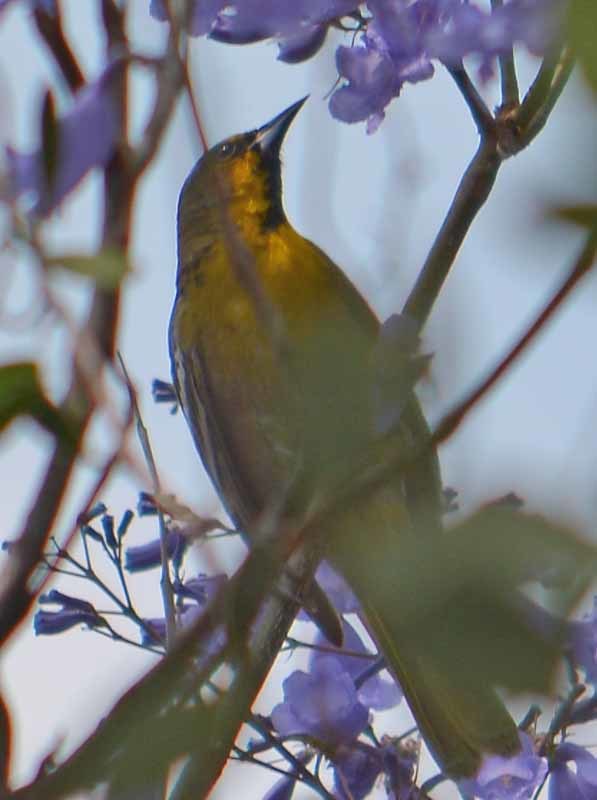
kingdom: Animalia
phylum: Chordata
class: Aves
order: Passeriformes
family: Icteridae
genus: Icterus
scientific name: Icterus abeillei
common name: Black-backed oriole
